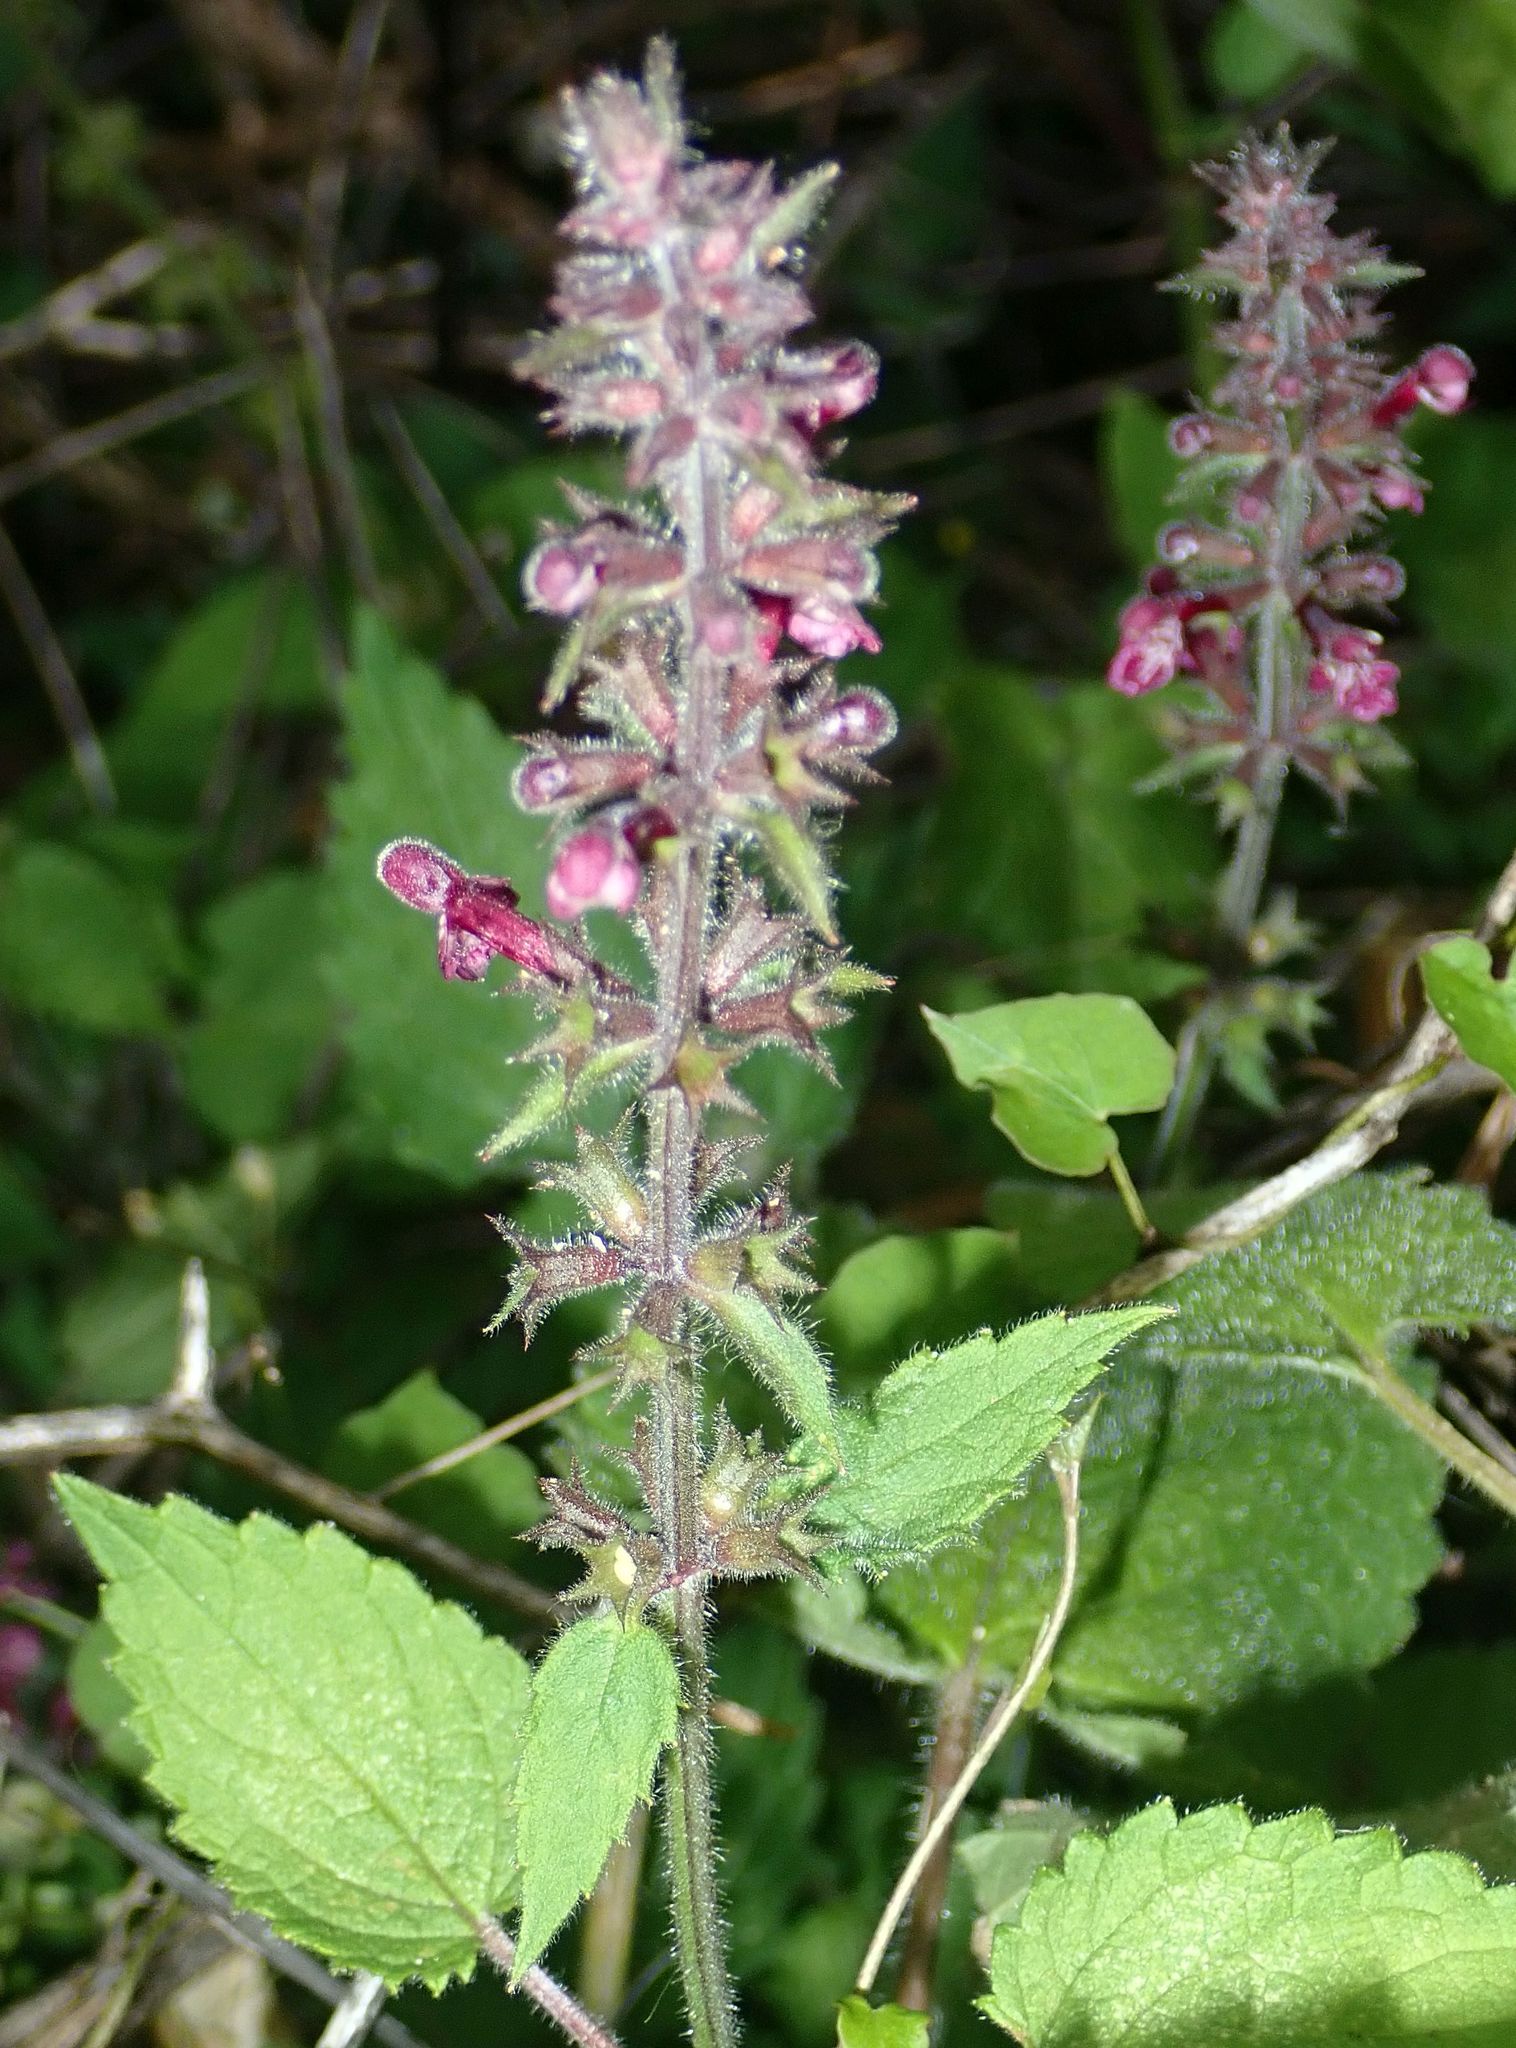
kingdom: Plantae
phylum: Tracheophyta
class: Magnoliopsida
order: Lamiales
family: Lamiaceae
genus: Stachys
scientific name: Stachys sylvatica
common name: Hedge woundwort
